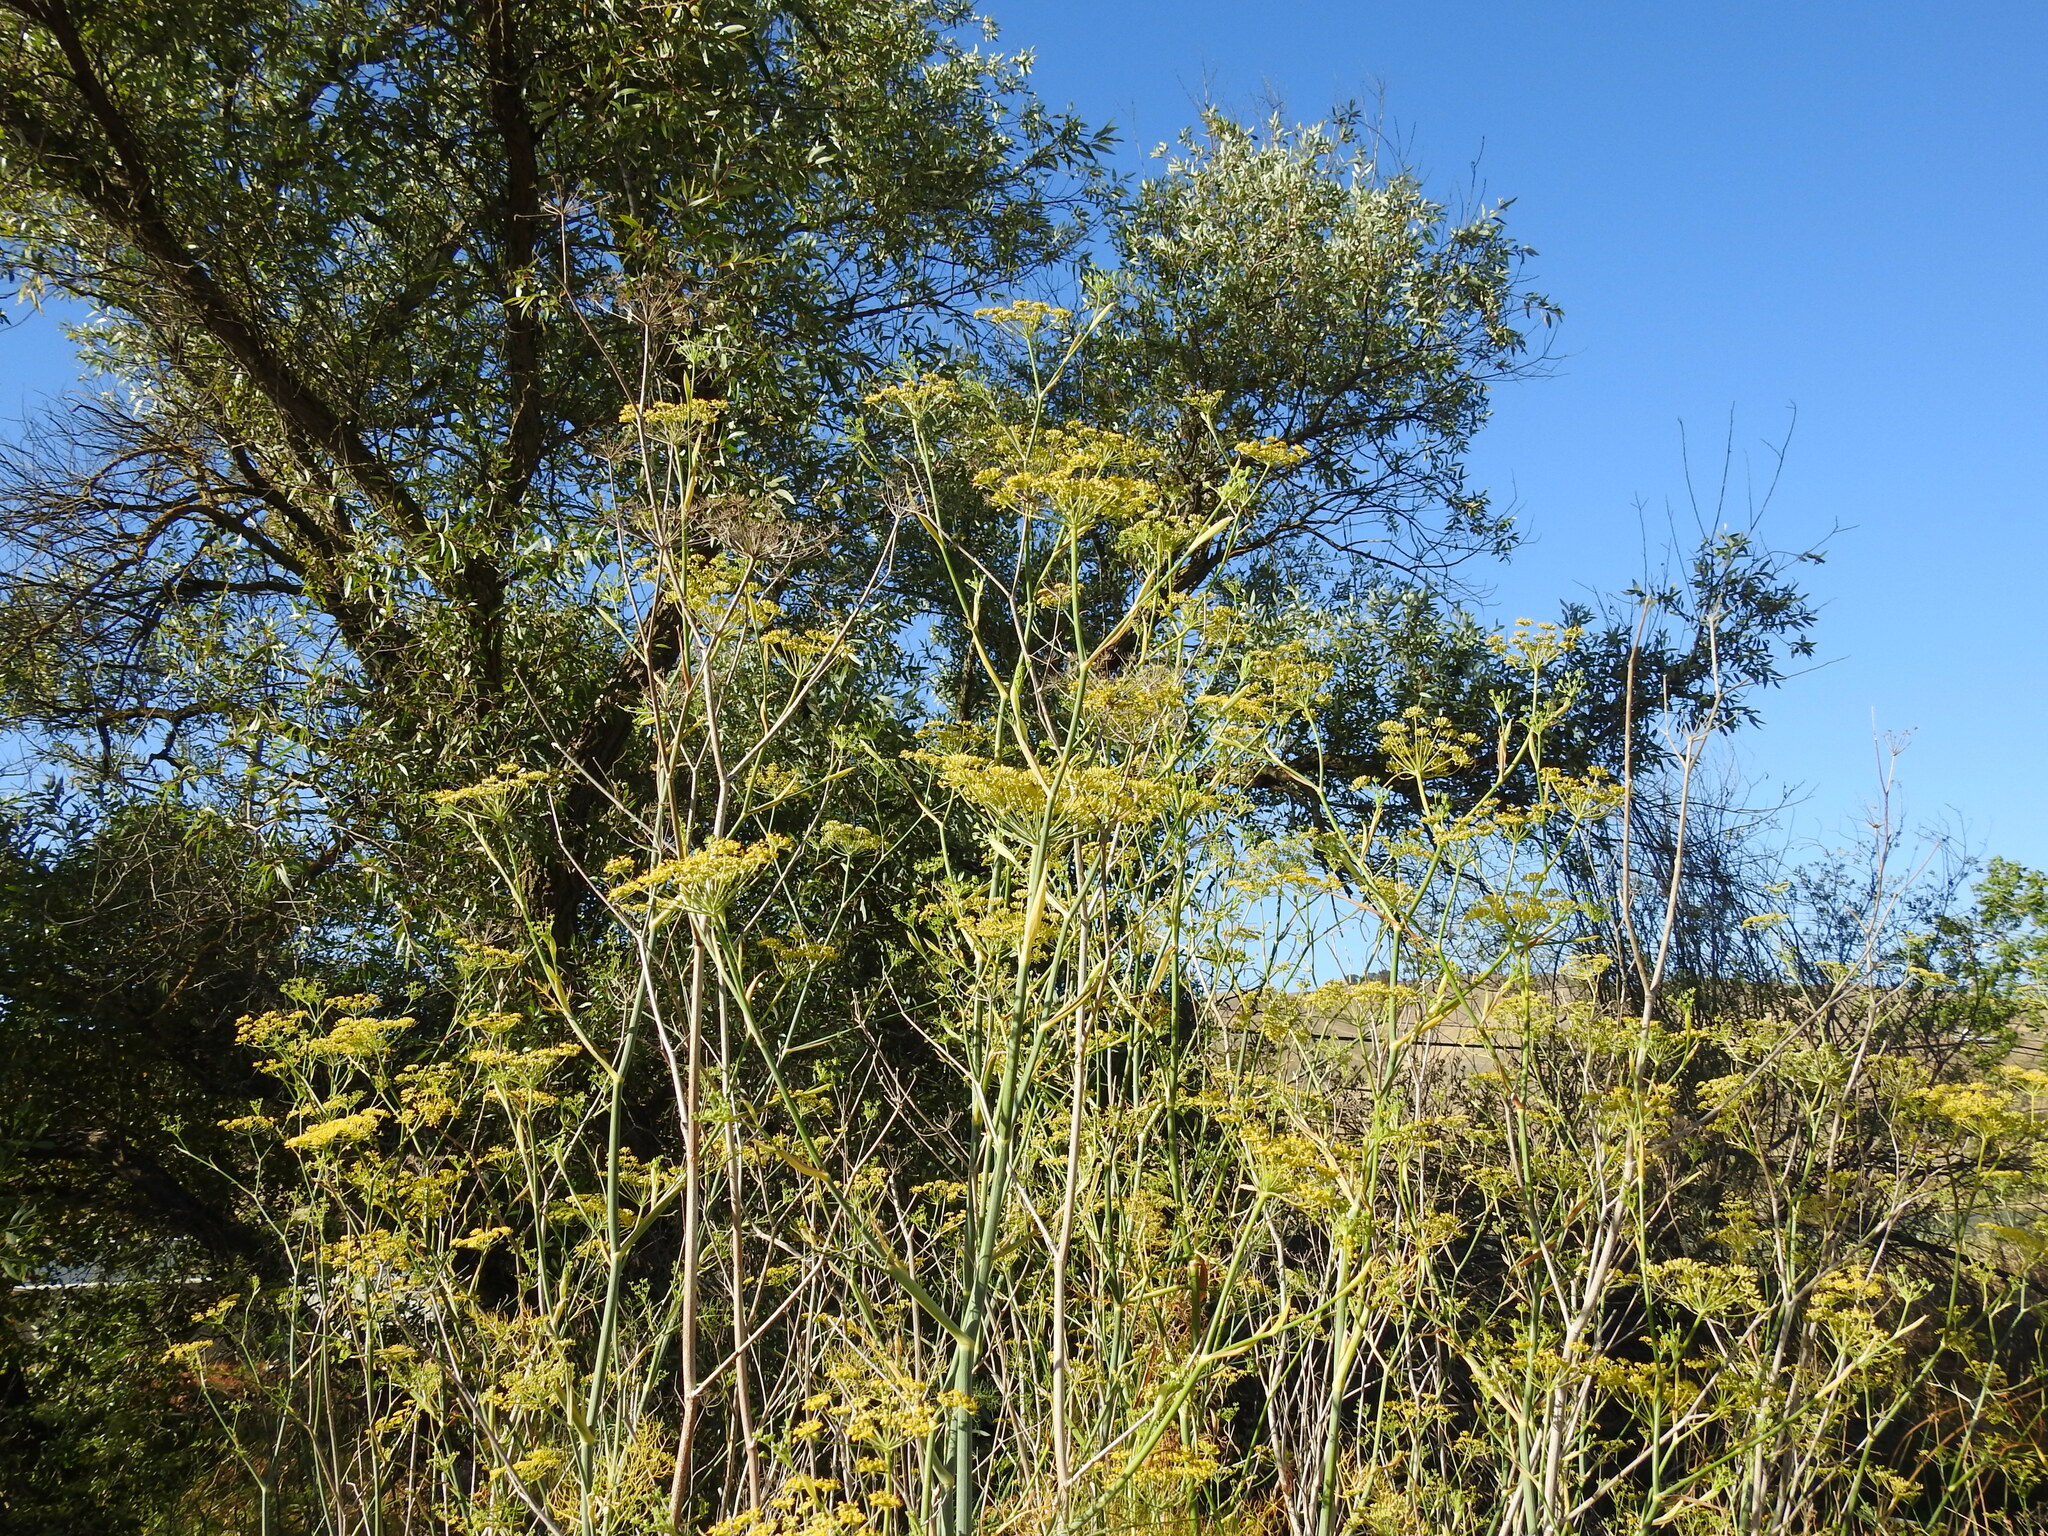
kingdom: Plantae
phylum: Tracheophyta
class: Magnoliopsida
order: Apiales
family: Apiaceae
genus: Foeniculum
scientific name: Foeniculum vulgare
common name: Fennel
